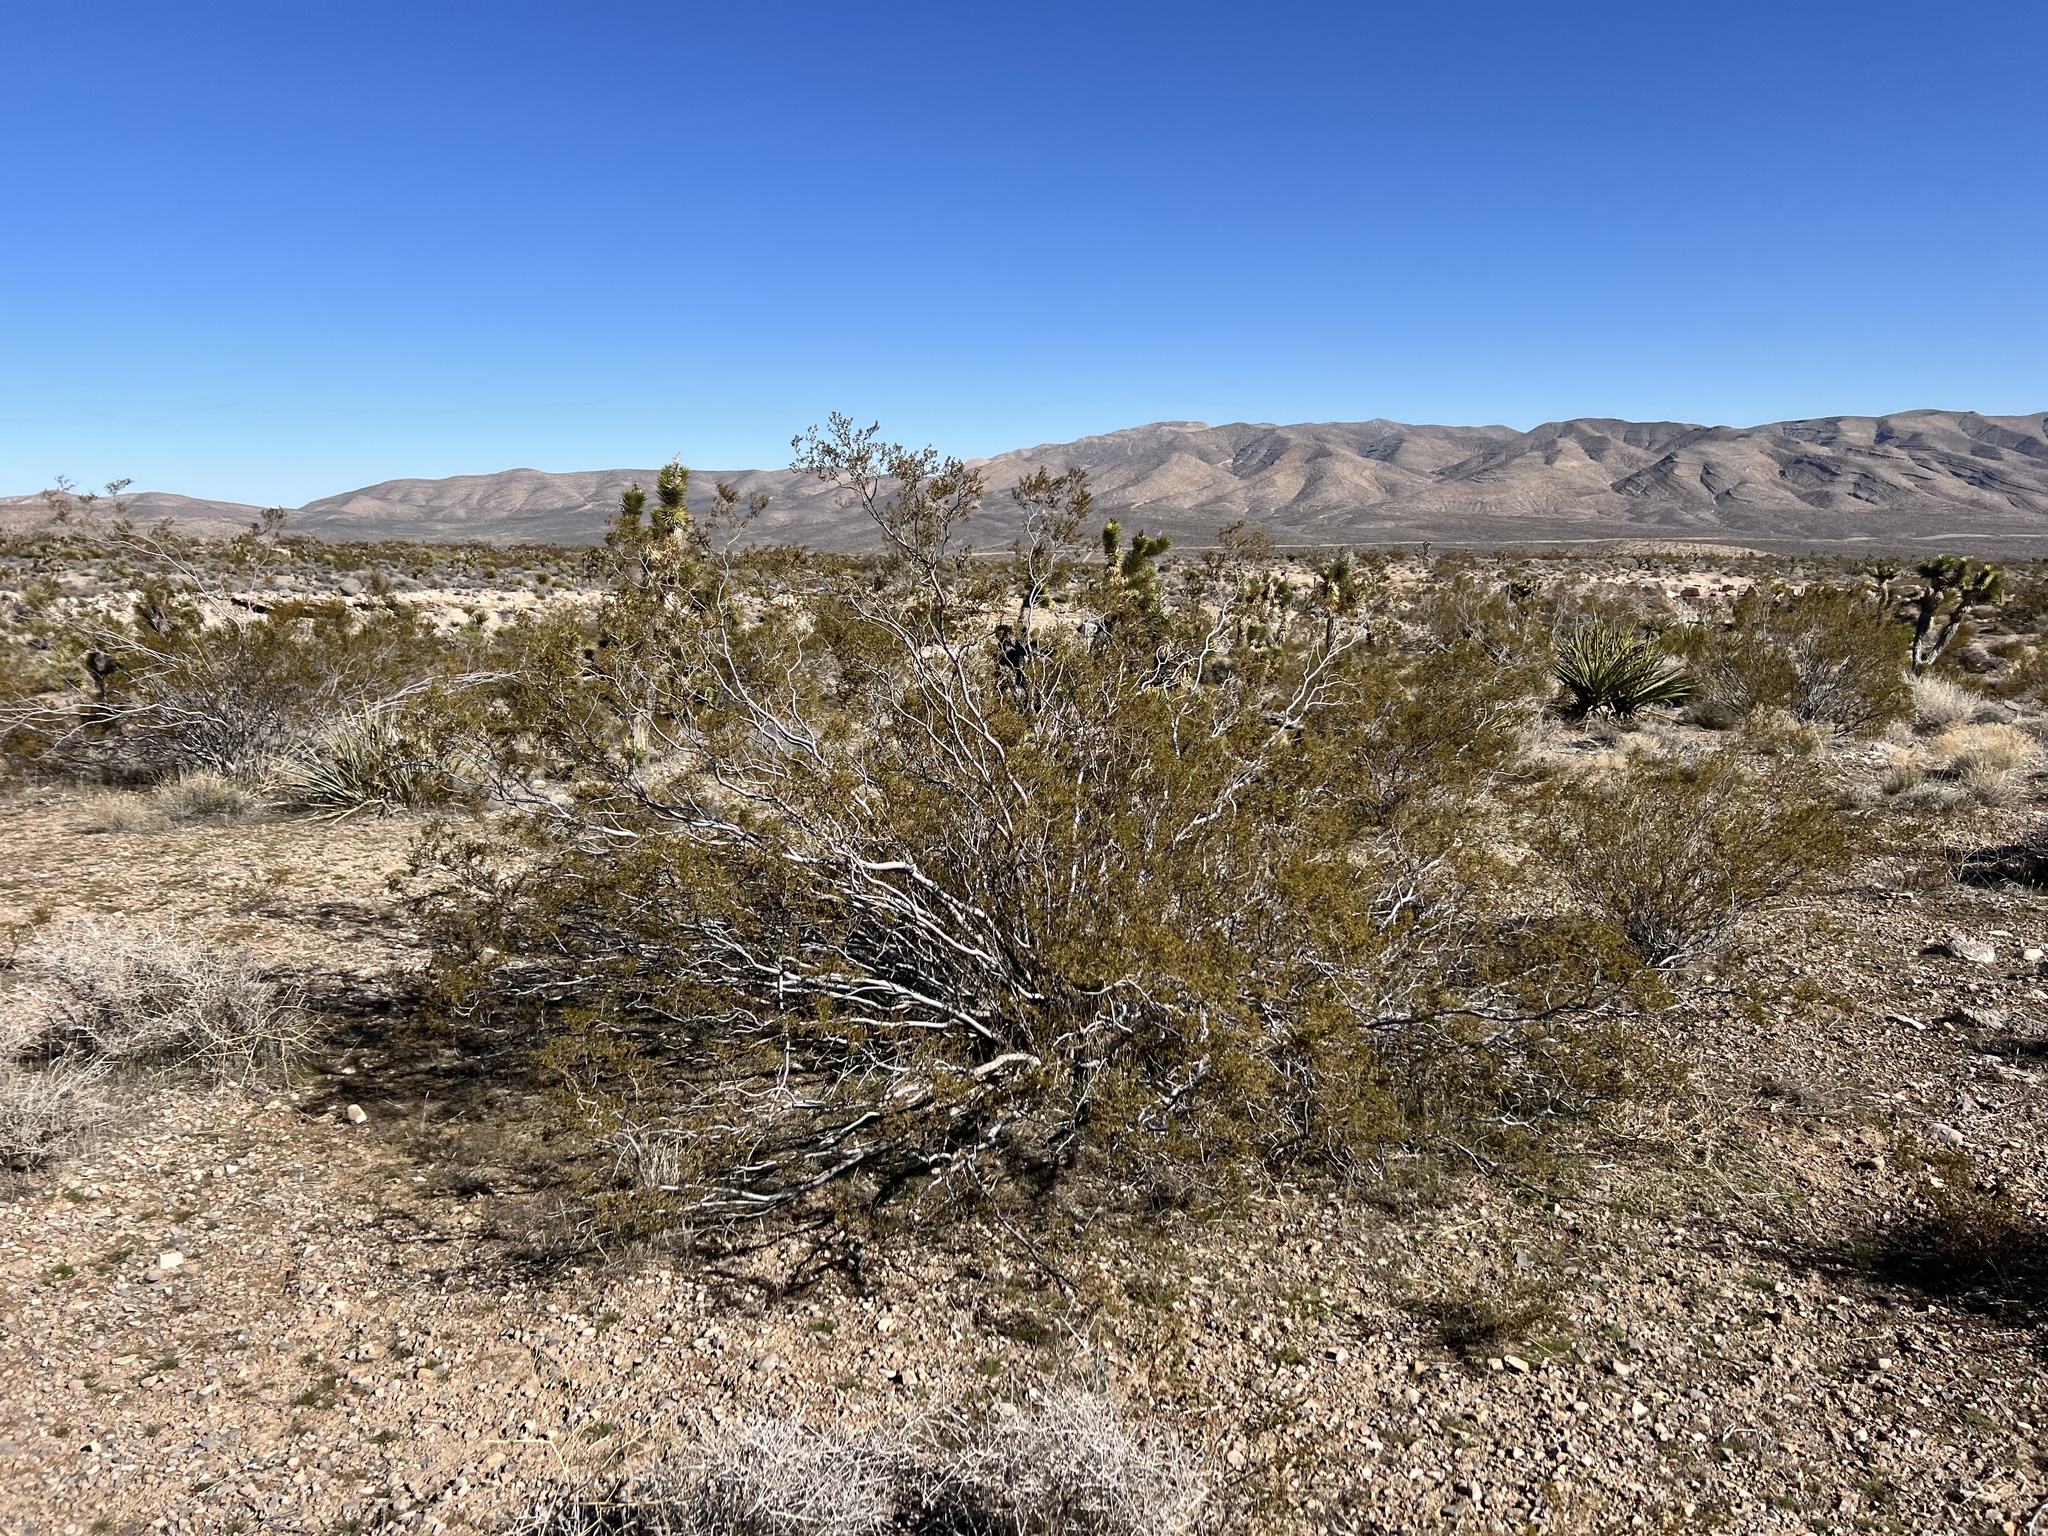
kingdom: Plantae
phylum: Tracheophyta
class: Magnoliopsida
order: Zygophyllales
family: Zygophyllaceae
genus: Larrea
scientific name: Larrea tridentata
